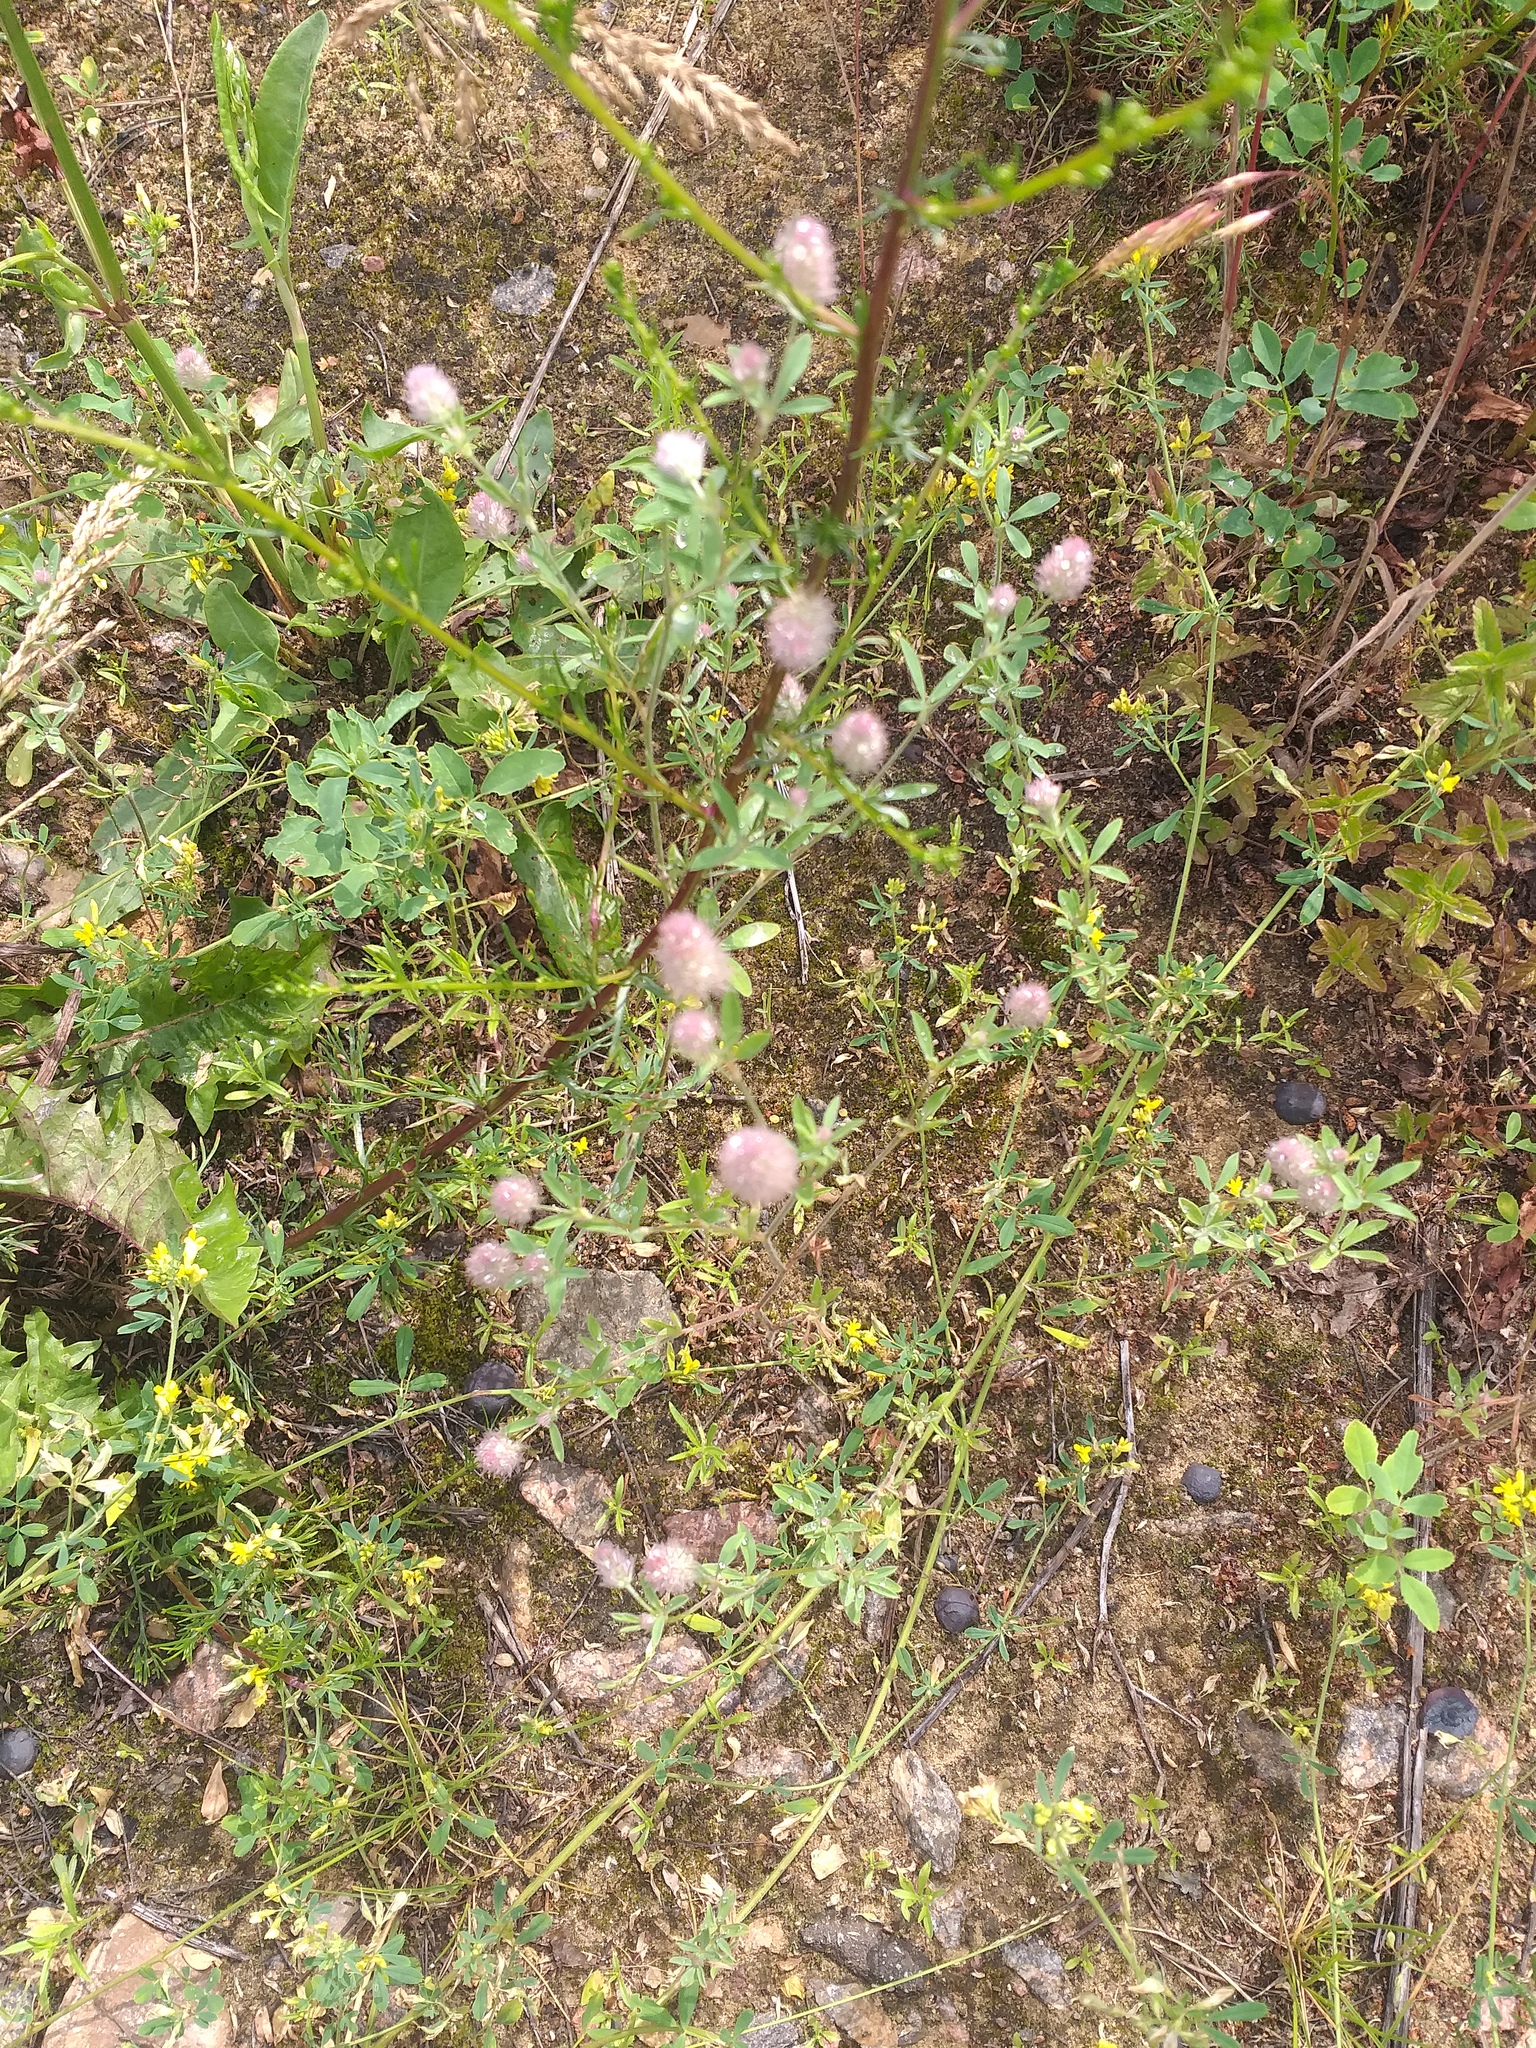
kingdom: Plantae
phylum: Tracheophyta
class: Magnoliopsida
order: Fabales
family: Fabaceae
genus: Trifolium
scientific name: Trifolium arvense
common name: Hare's-foot clover
